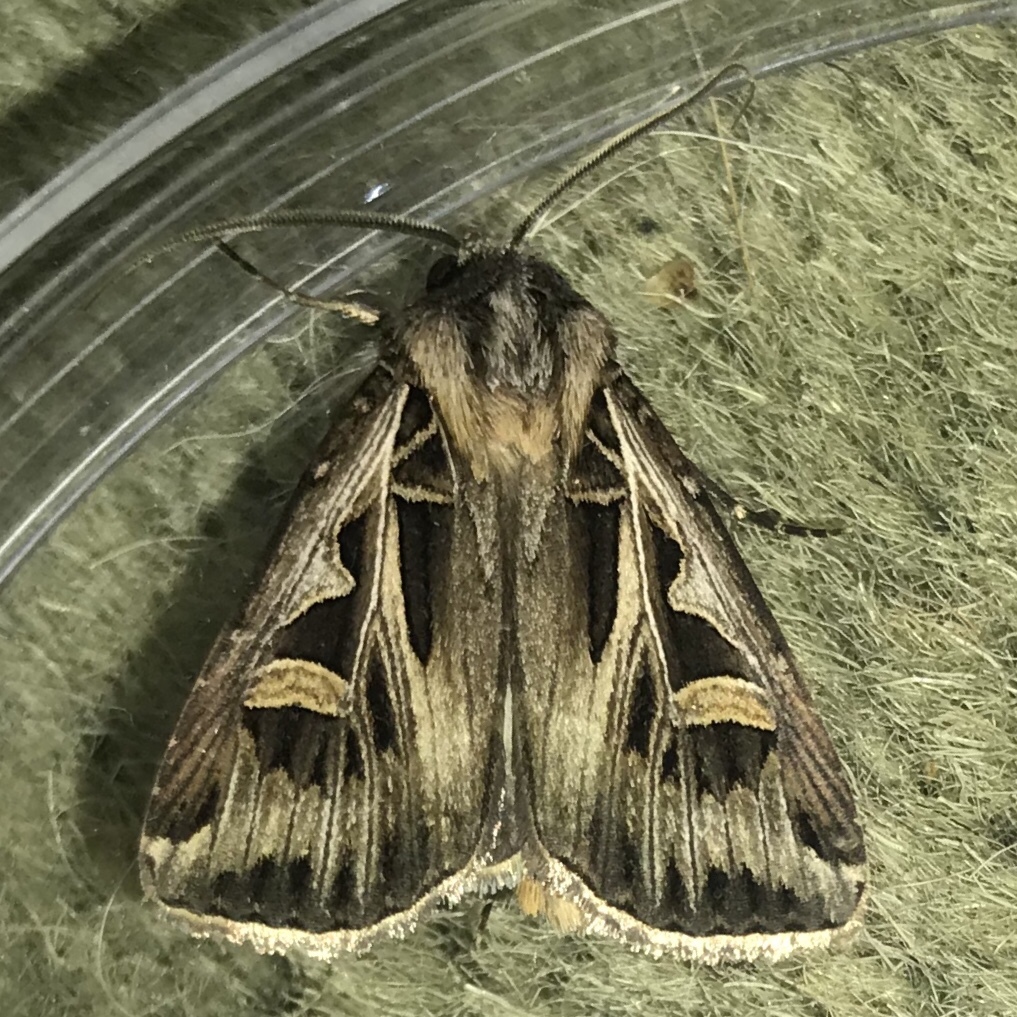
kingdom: Animalia
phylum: Arthropoda
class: Insecta
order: Lepidoptera
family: Noctuidae
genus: Feltia
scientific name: Feltia jaculifera
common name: Dingy cutworm moth
